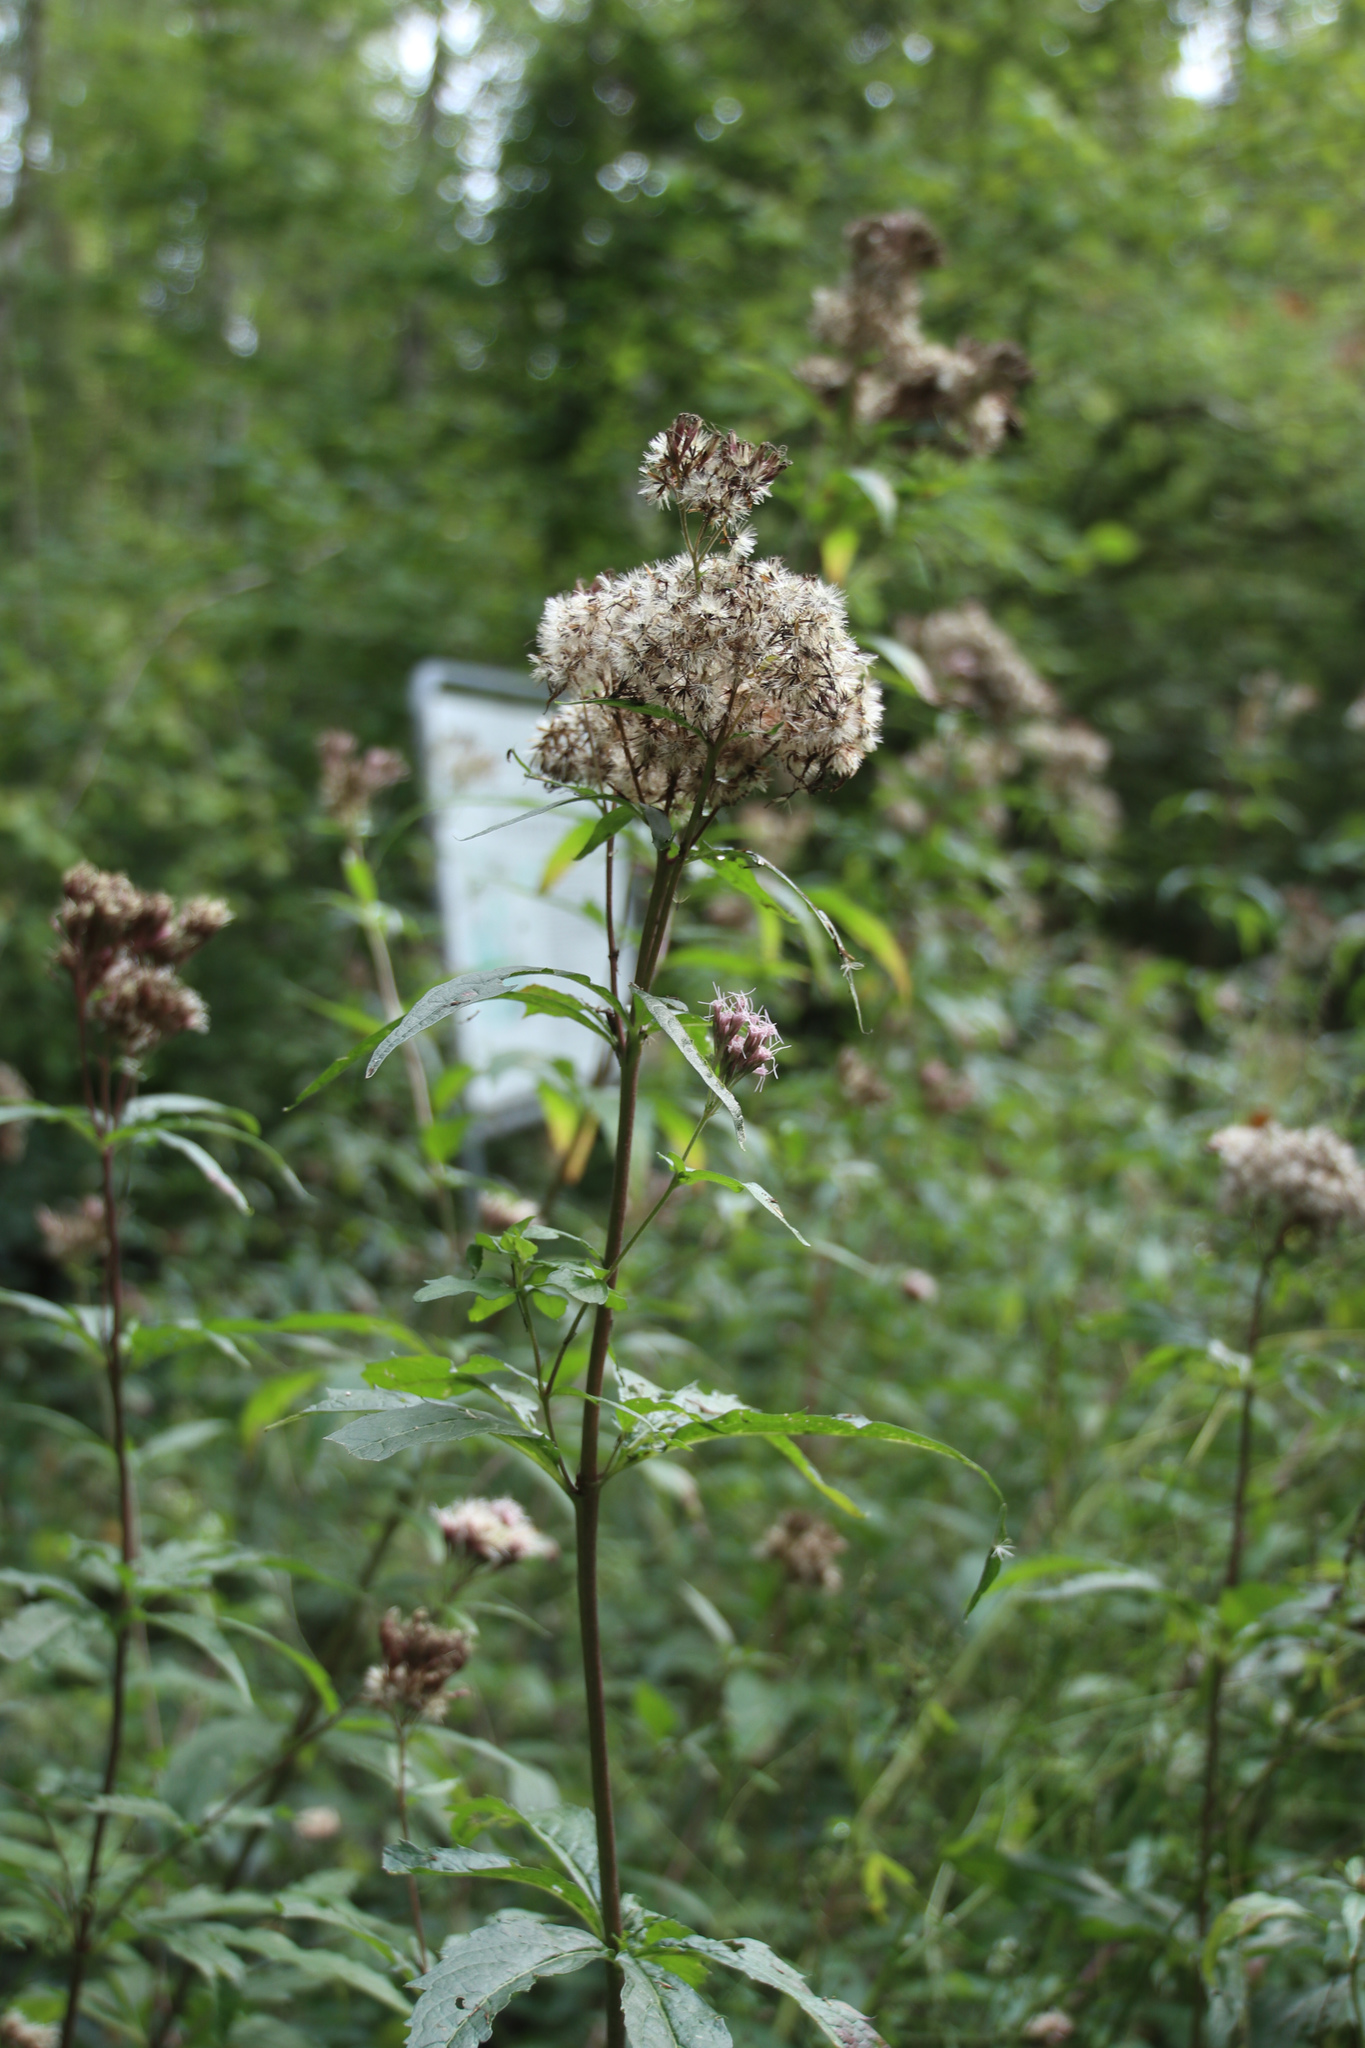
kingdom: Plantae
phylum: Tracheophyta
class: Magnoliopsida
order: Asterales
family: Asteraceae
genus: Eupatorium
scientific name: Eupatorium cannabinum
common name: Hemp-agrimony
